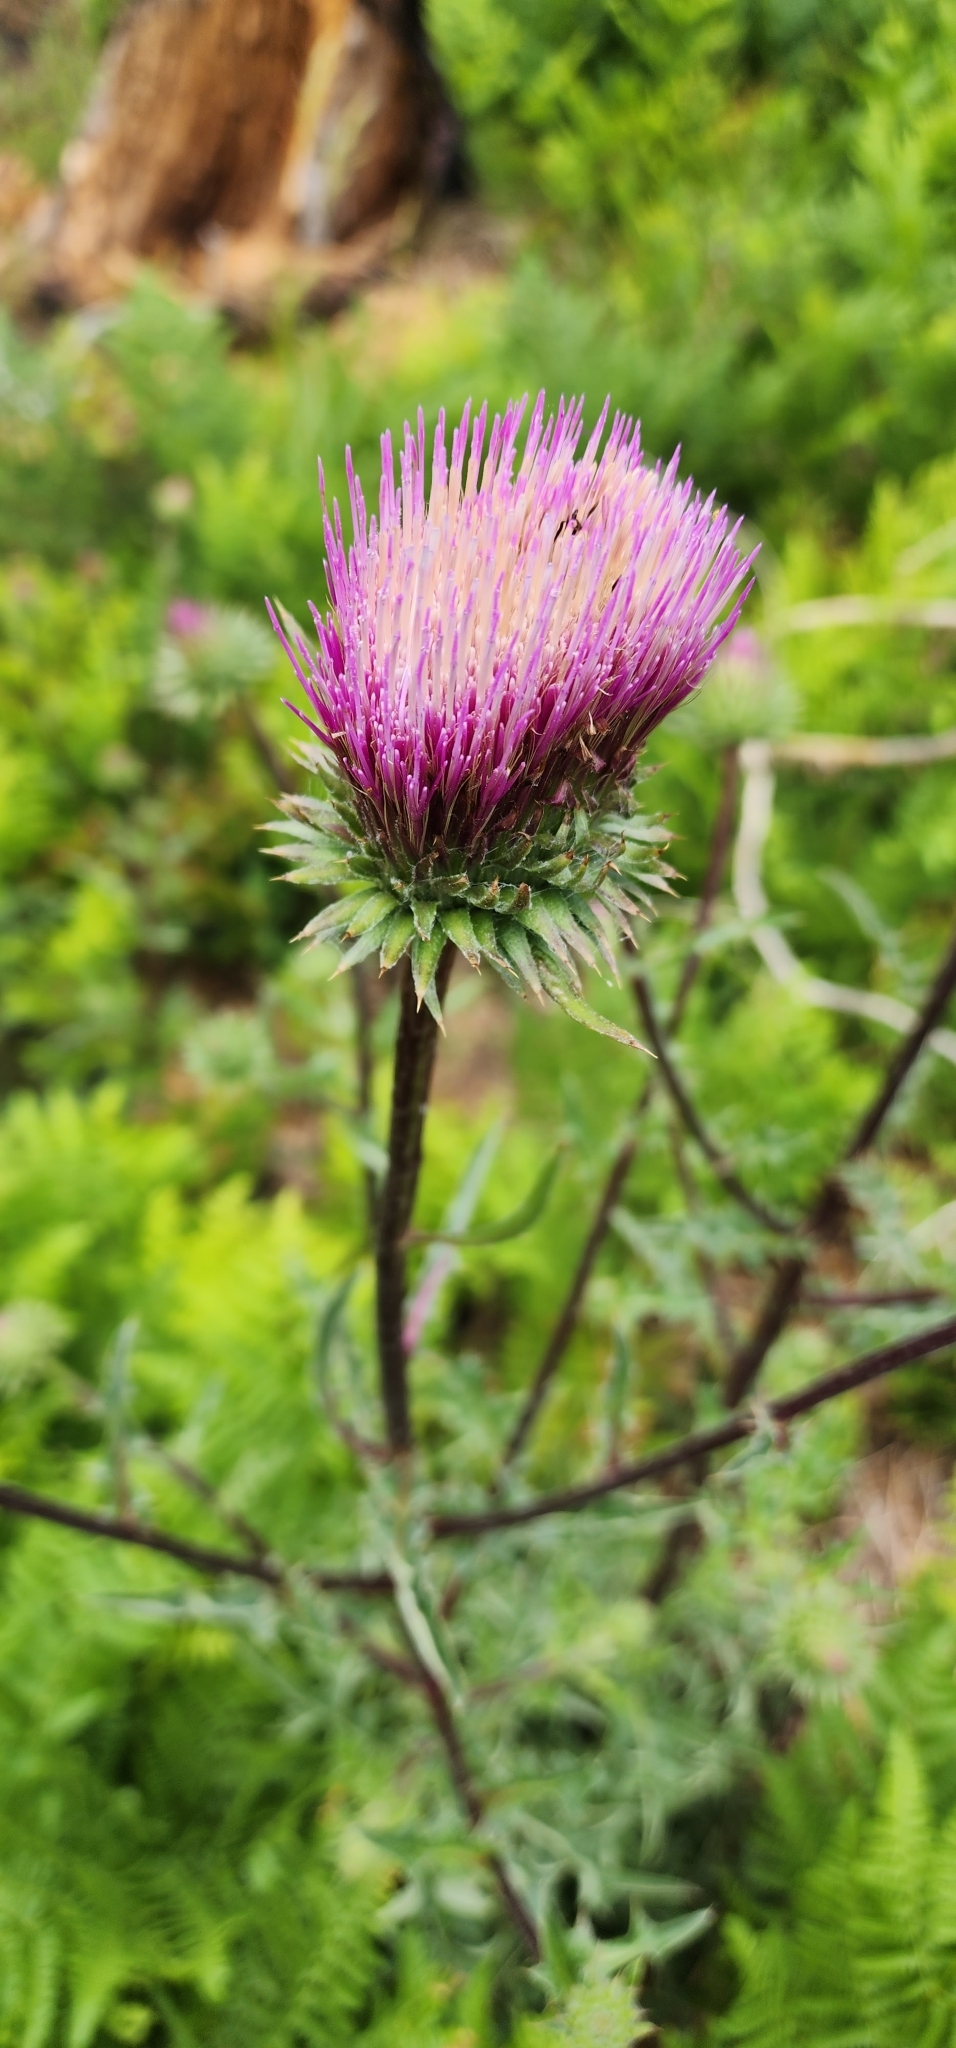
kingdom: Plantae
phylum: Tracheophyta
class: Magnoliopsida
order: Asterales
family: Asteraceae
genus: Cirsium
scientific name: Cirsium andersonii
